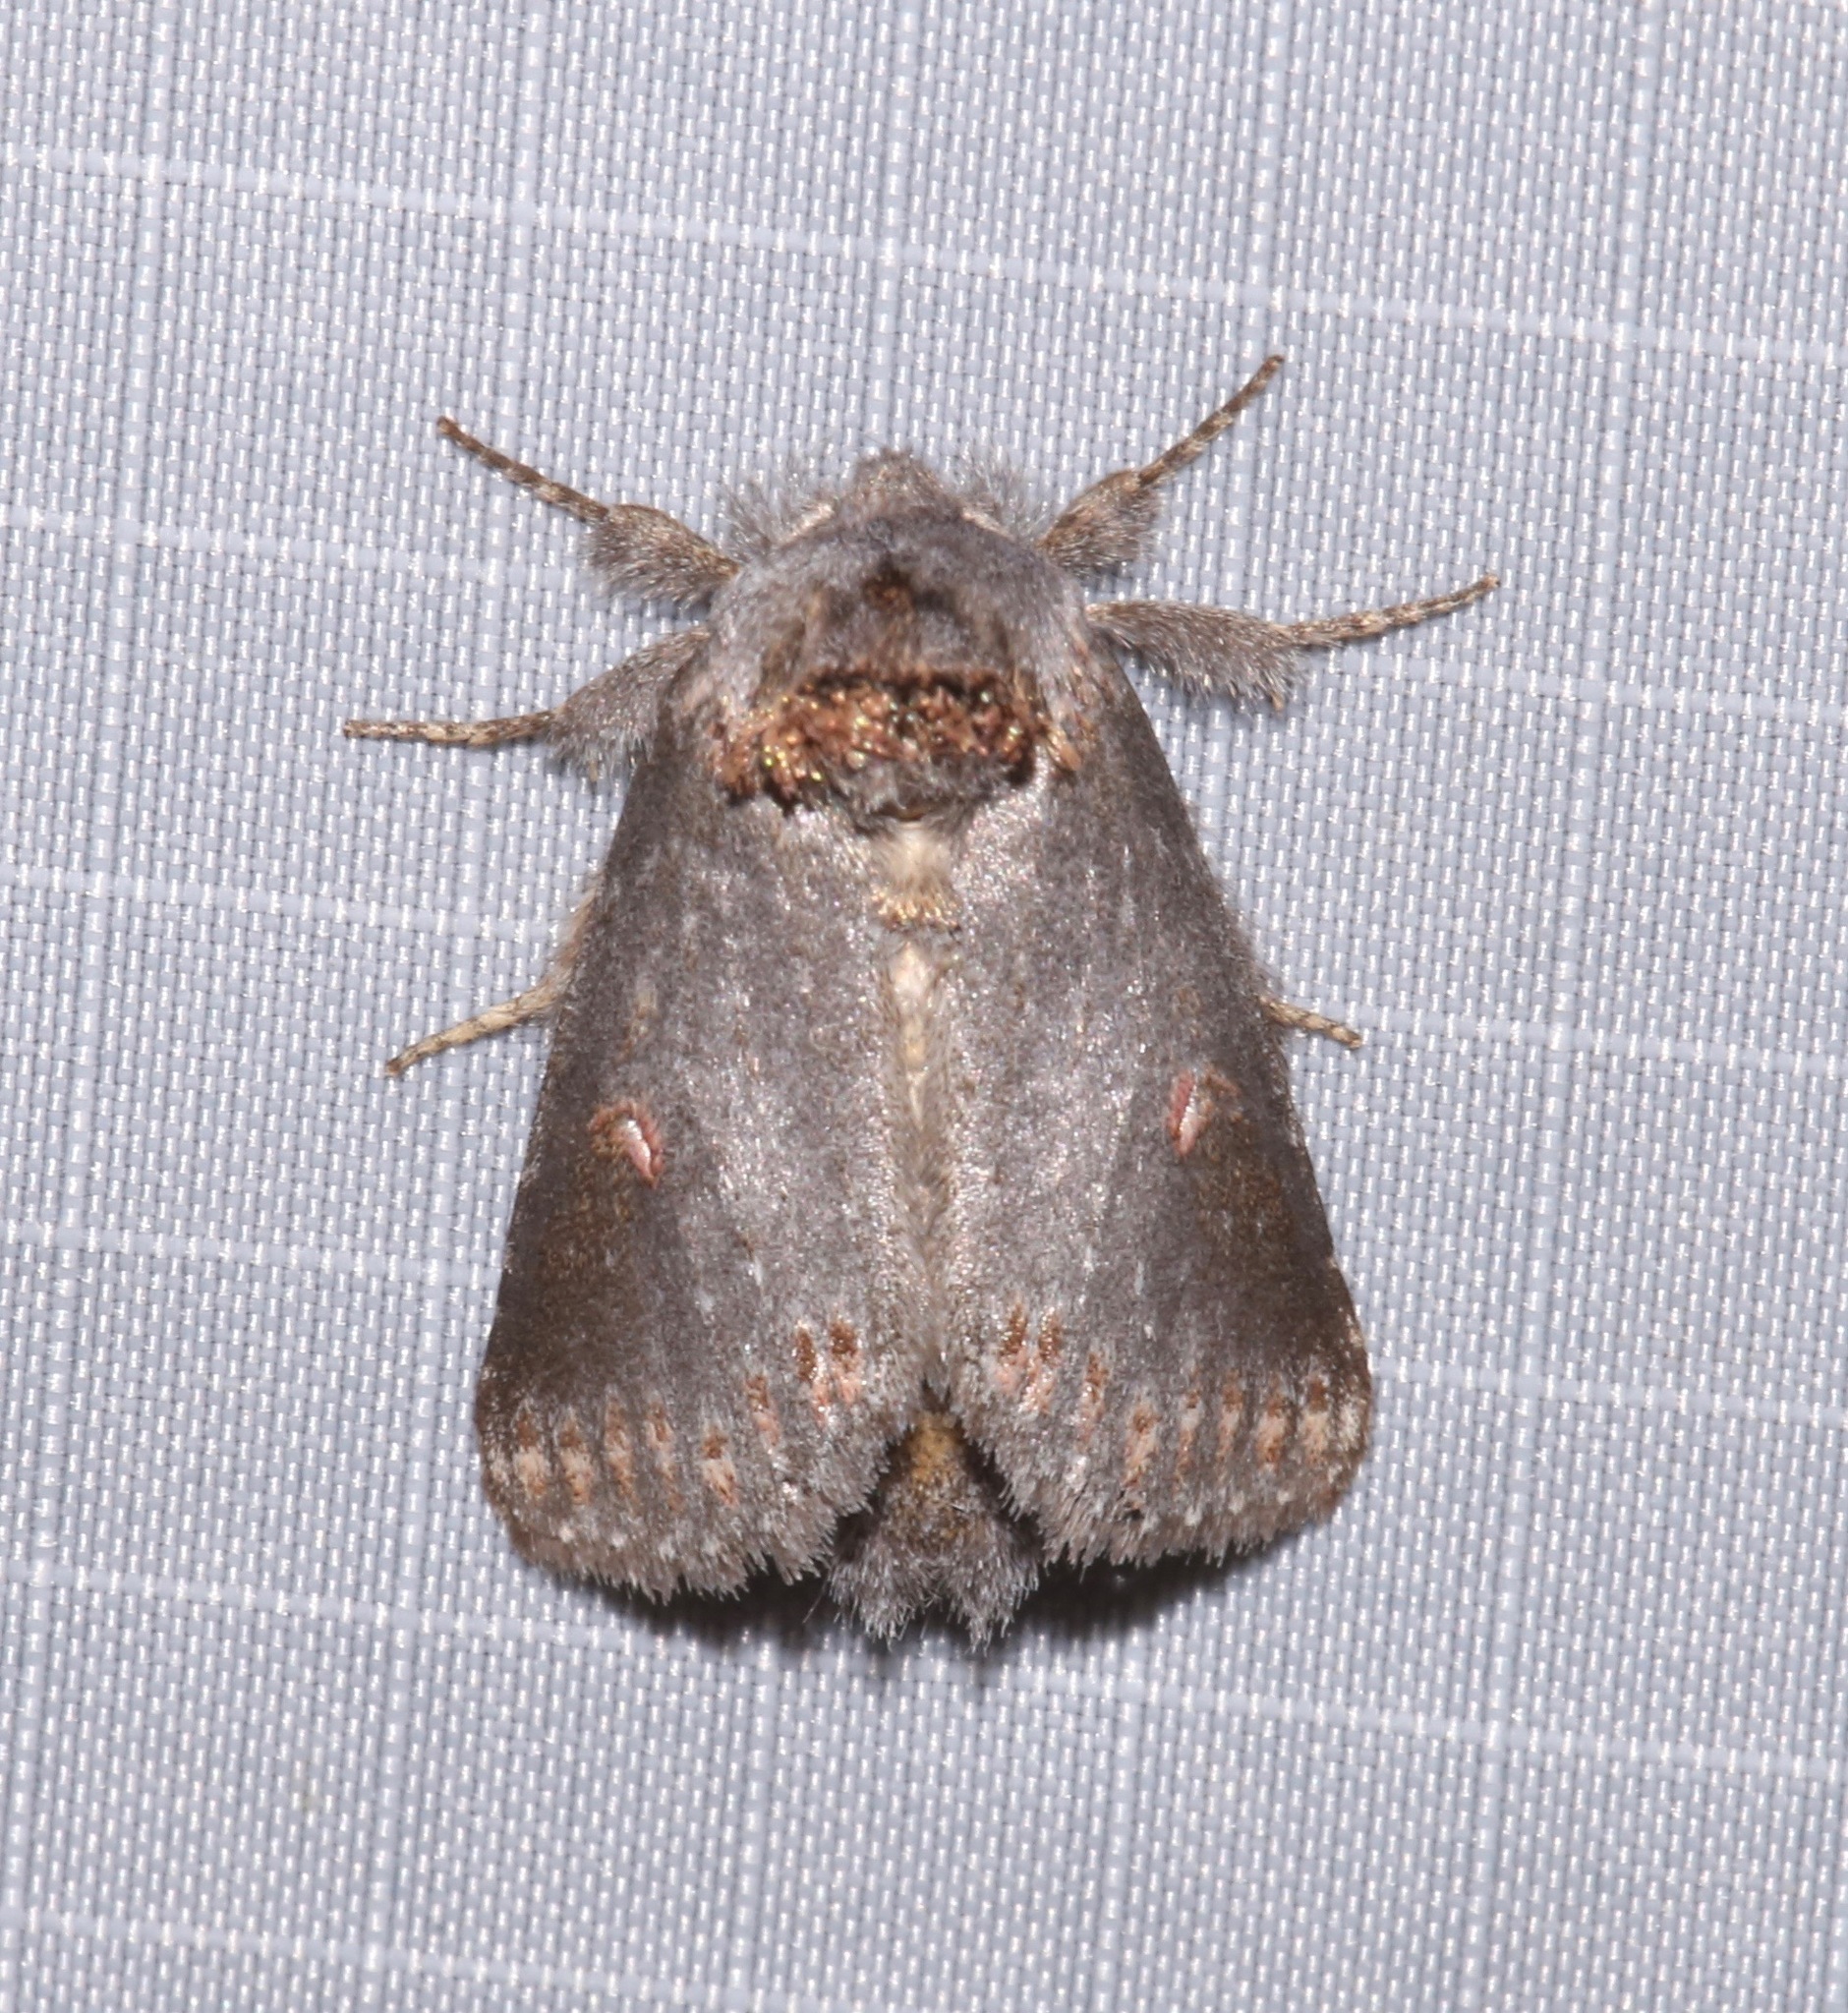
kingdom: Animalia
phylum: Arthropoda
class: Insecta
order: Lepidoptera
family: Notodontidae
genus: Theroa
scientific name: Theroa zethus
